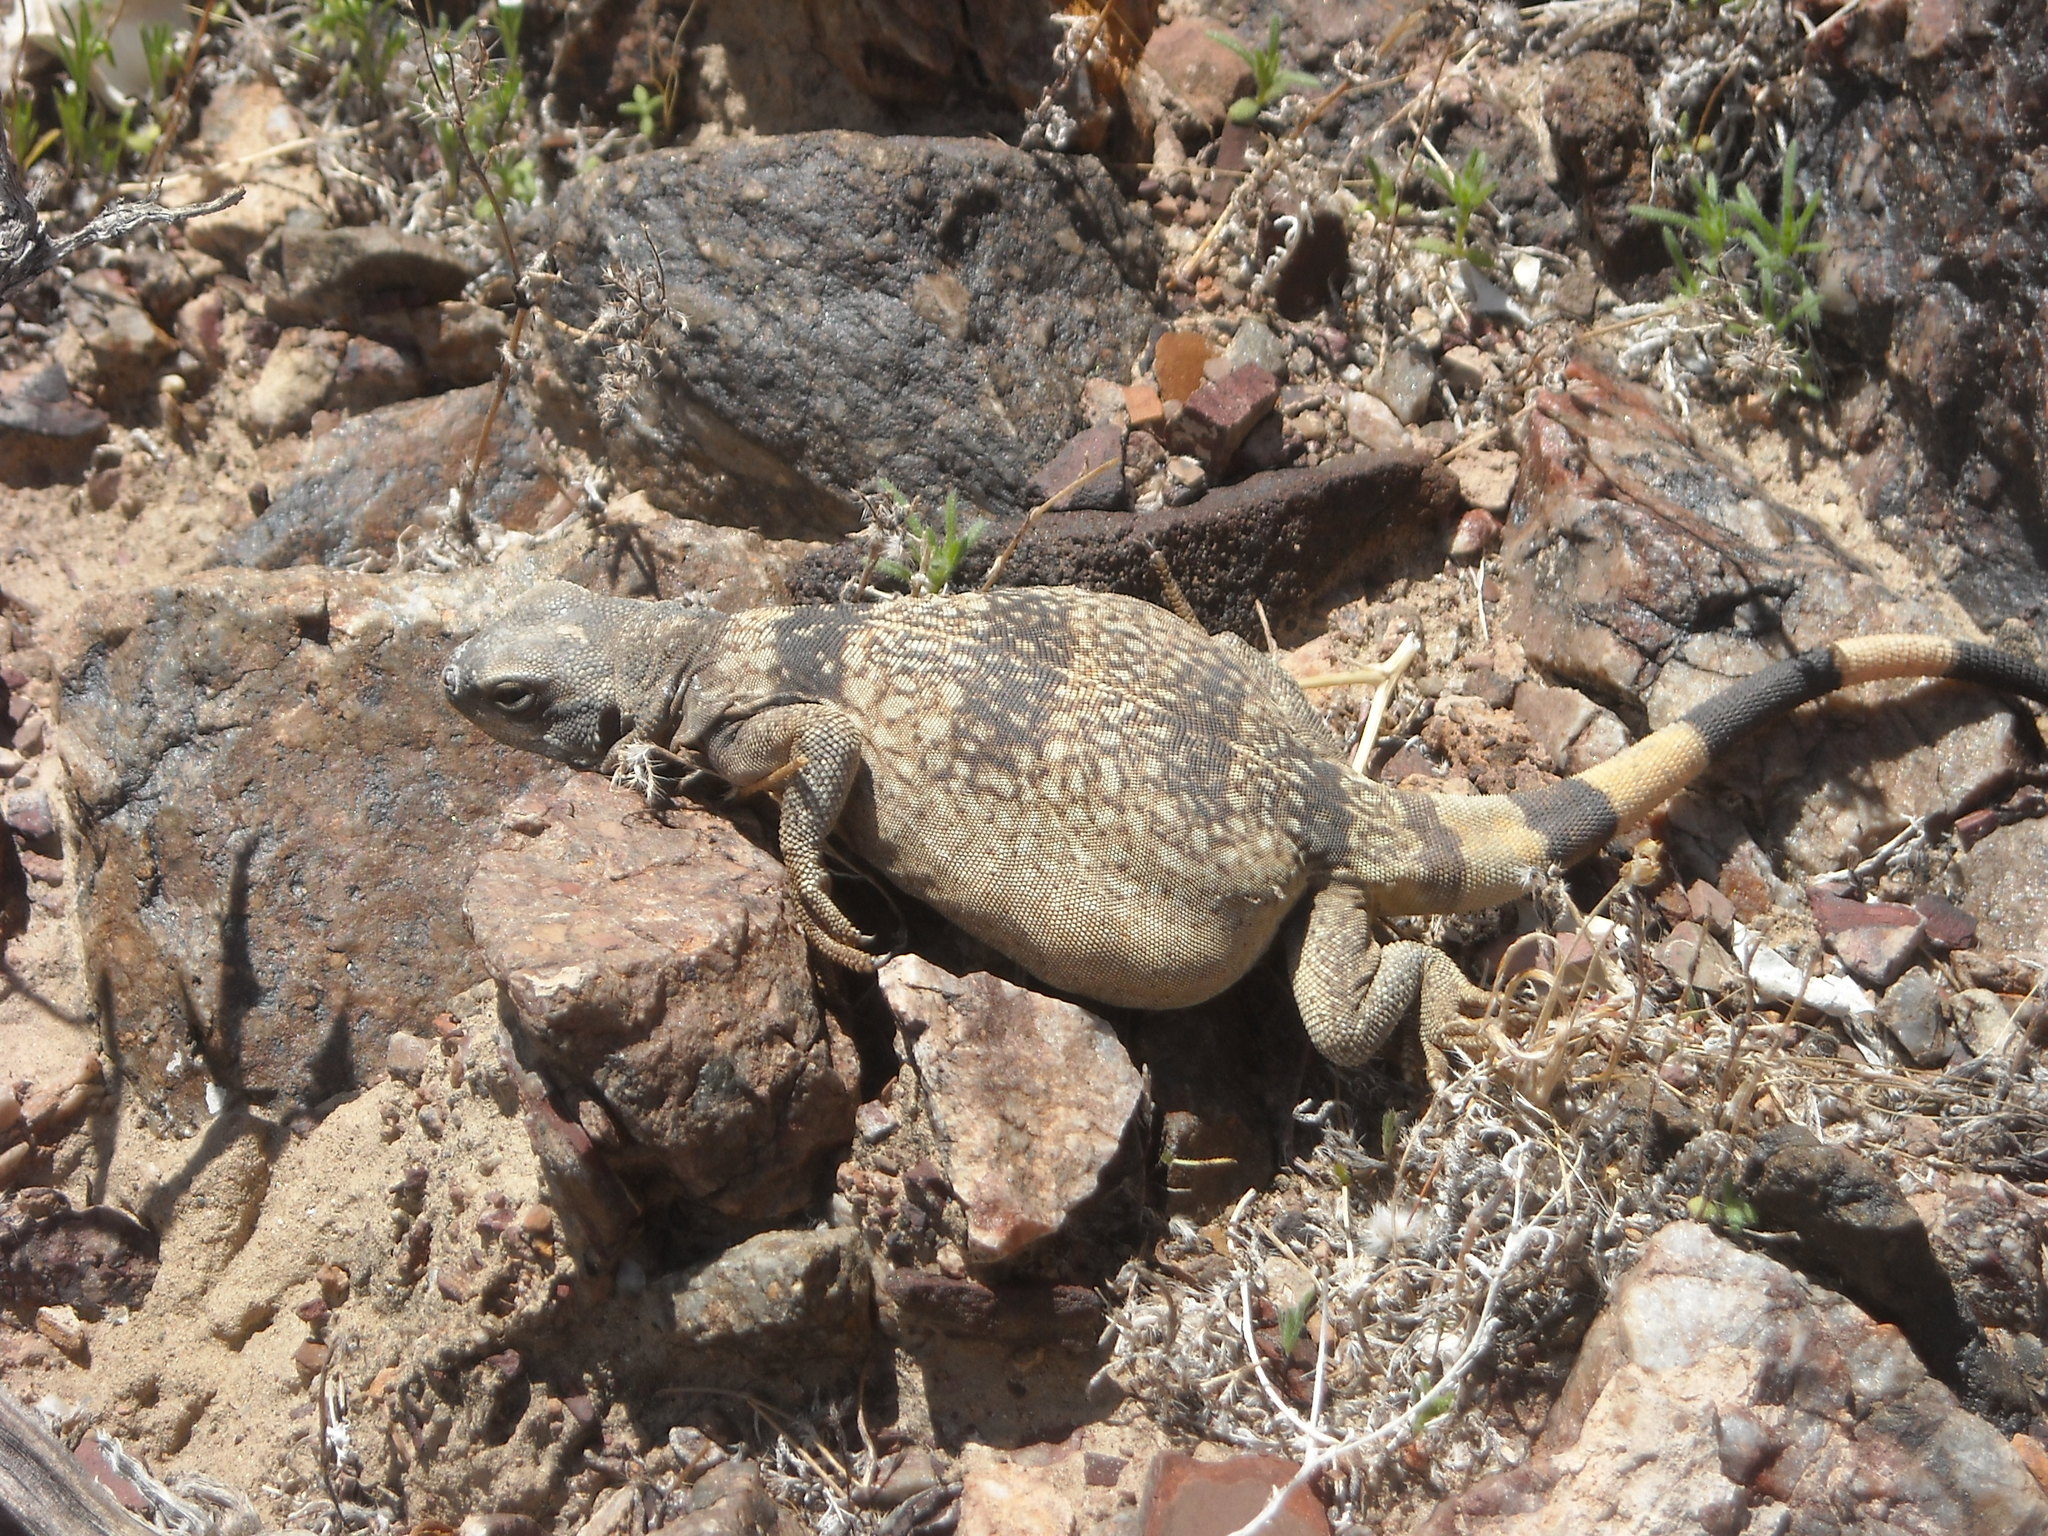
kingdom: Animalia
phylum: Chordata
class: Squamata
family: Iguanidae
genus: Sauromalus
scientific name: Sauromalus ater
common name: Northern chuckwalla
